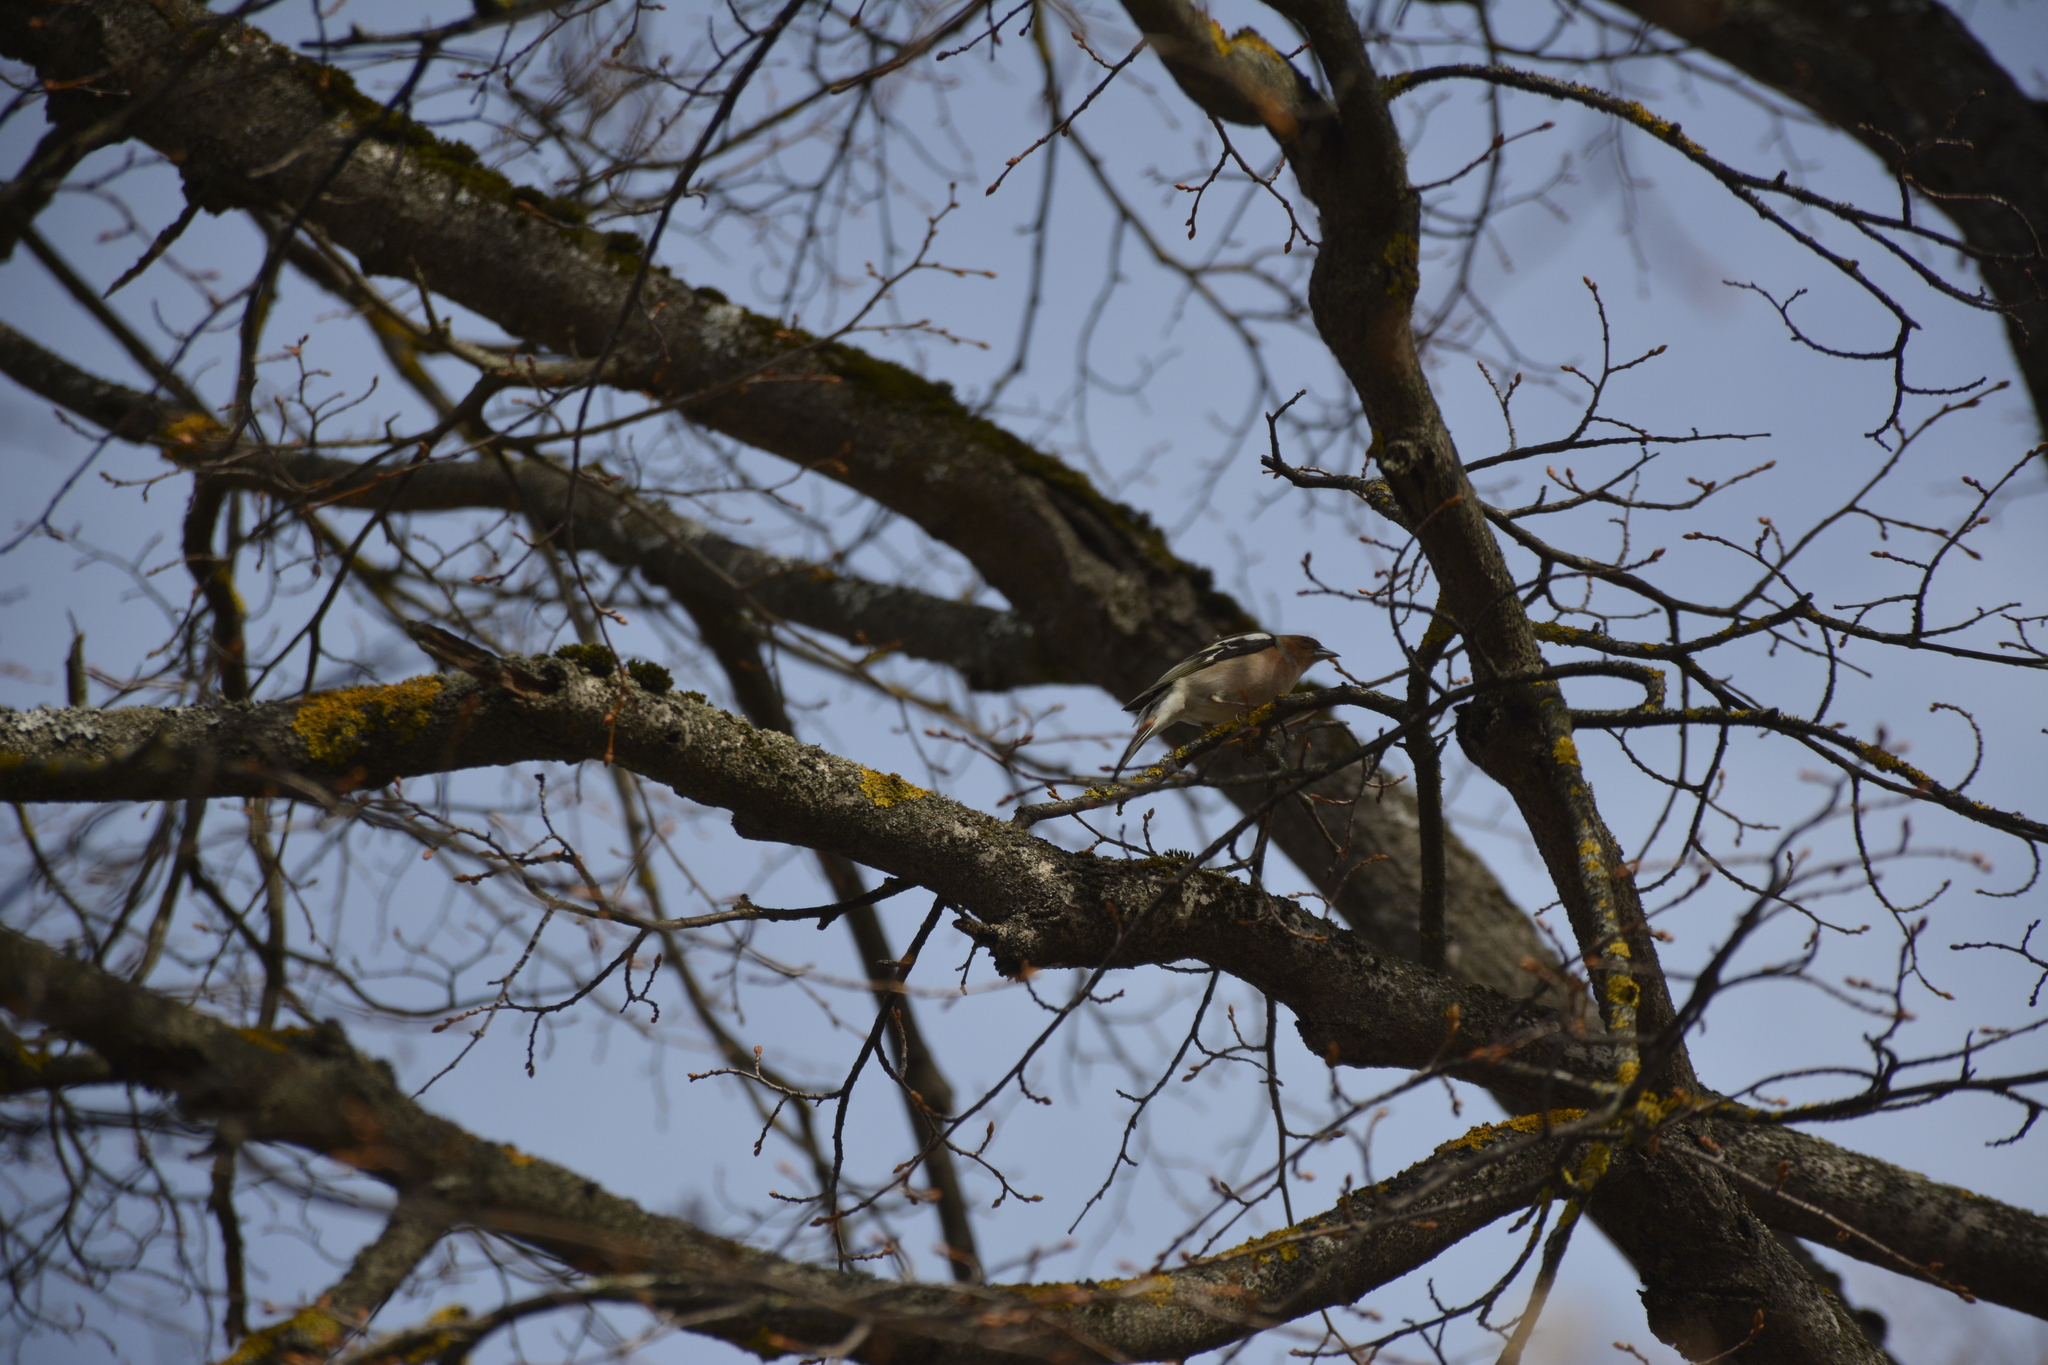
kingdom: Animalia
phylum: Chordata
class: Aves
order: Passeriformes
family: Fringillidae
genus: Fringilla
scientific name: Fringilla coelebs
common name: Common chaffinch
